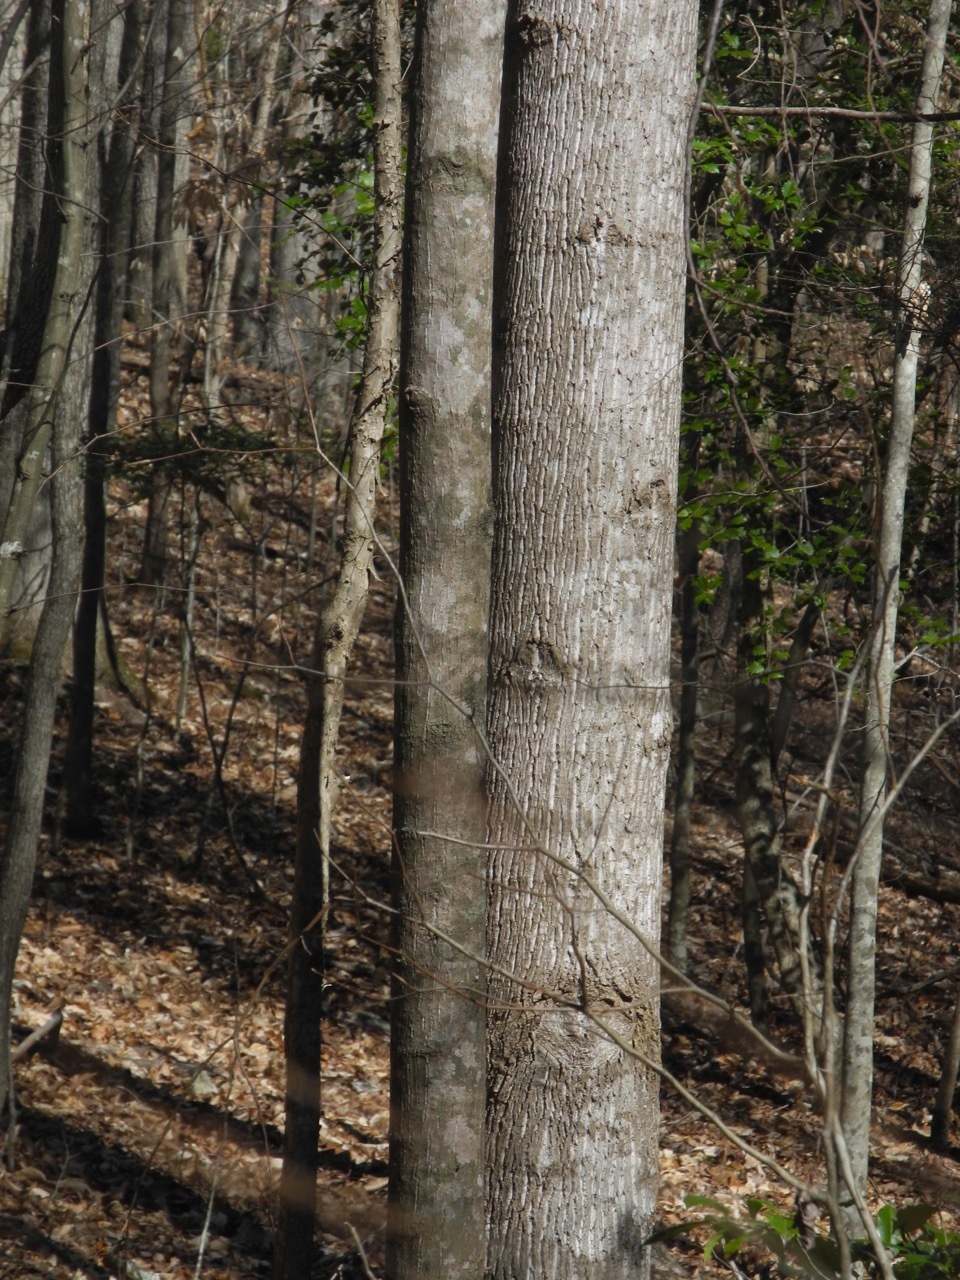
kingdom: Plantae
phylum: Tracheophyta
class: Magnoliopsida
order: Magnoliales
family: Magnoliaceae
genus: Liriodendron
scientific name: Liriodendron tulipifera
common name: Tulip tree
